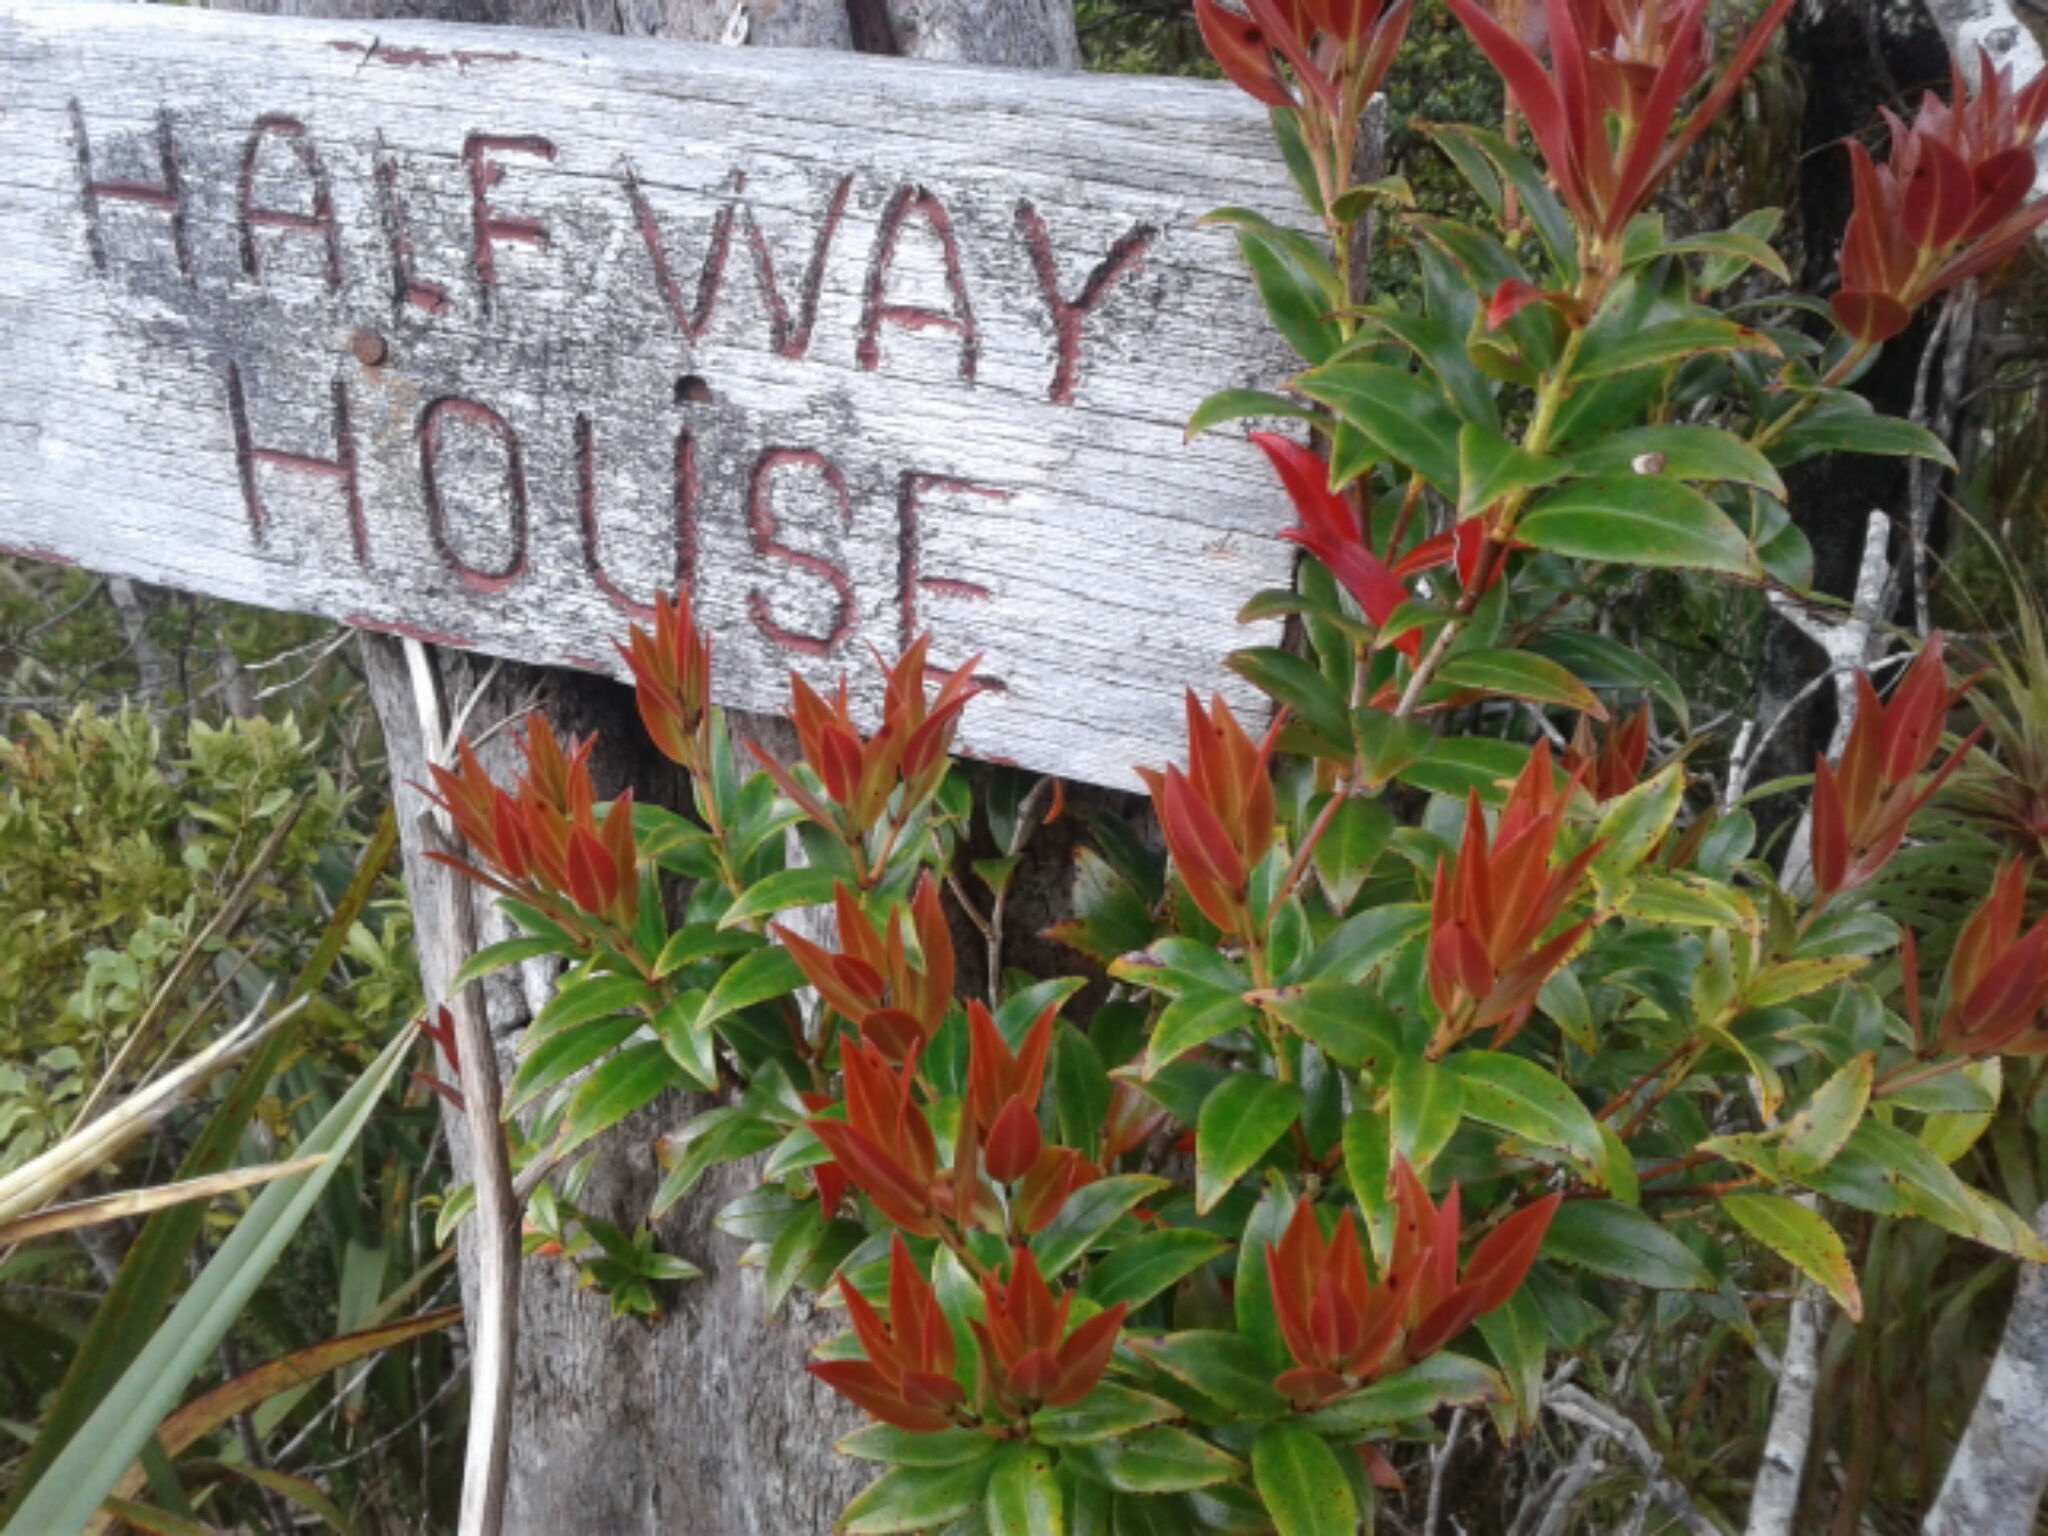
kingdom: Plantae
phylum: Tracheophyta
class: Magnoliopsida
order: Myrtales
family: Myrtaceae
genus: Metrosideros
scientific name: Metrosideros umbellata
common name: Southern rata
